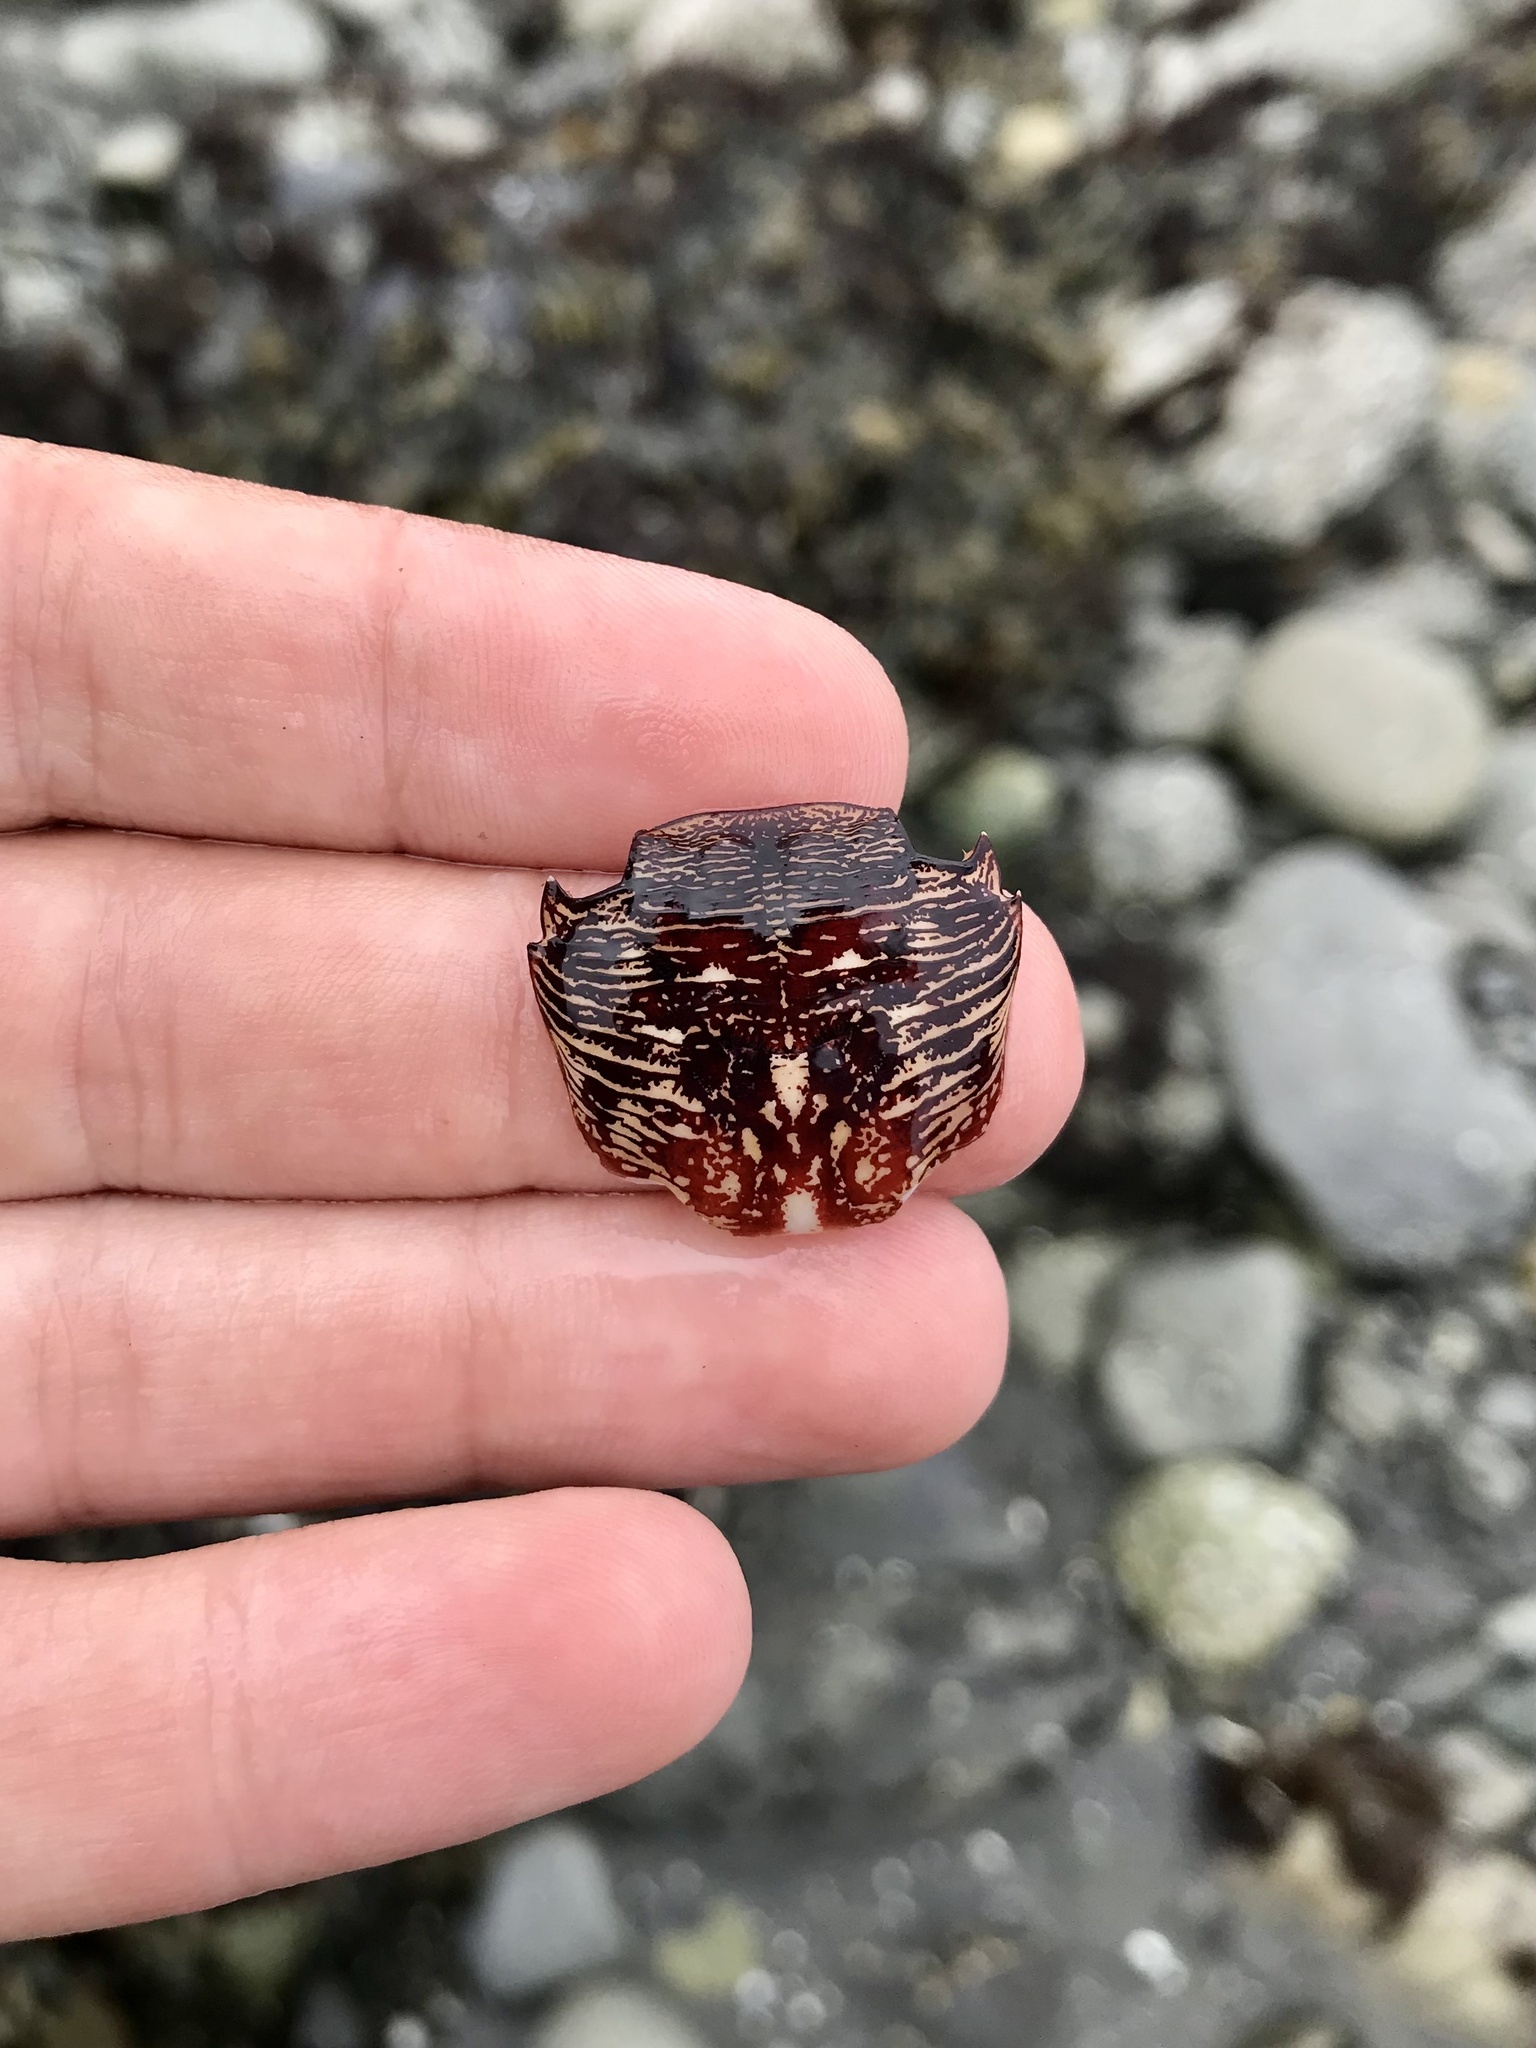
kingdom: Animalia
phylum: Arthropoda
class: Malacostraca
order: Decapoda
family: Grapsidae
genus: Pachygrapsus
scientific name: Pachygrapsus crassipes
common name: Striped shore crab
